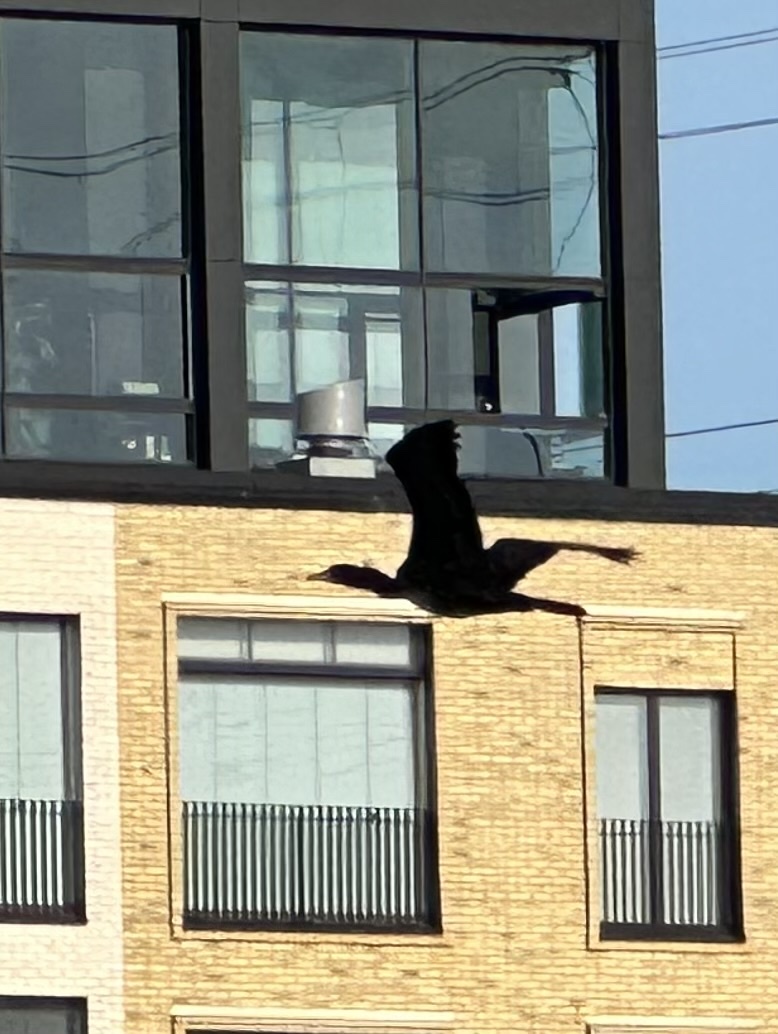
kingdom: Animalia
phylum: Chordata
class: Aves
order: Suliformes
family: Phalacrocoracidae
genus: Phalacrocorax
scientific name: Phalacrocorax carbo
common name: Great cormorant
